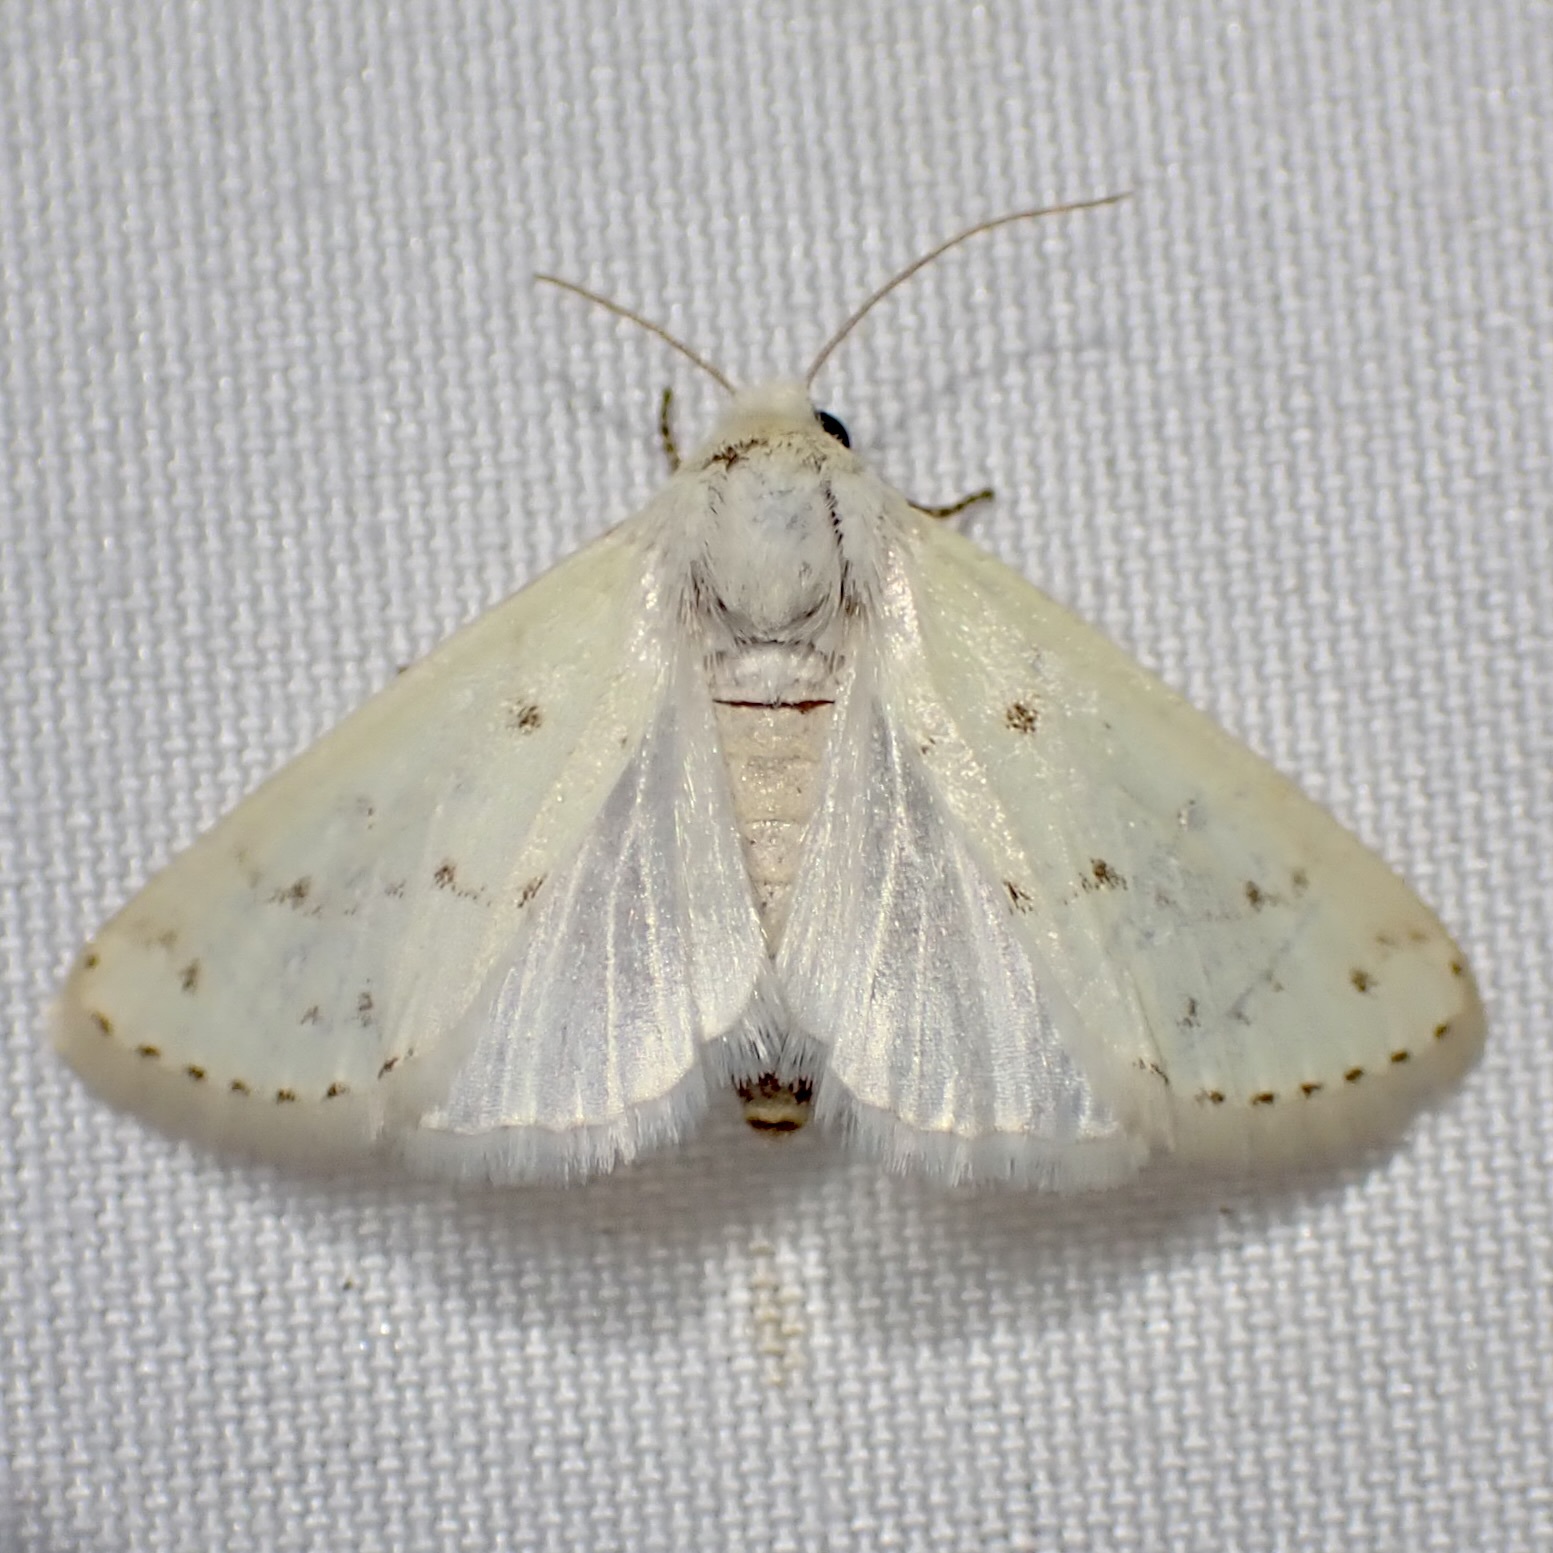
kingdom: Animalia
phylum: Arthropoda
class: Insecta
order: Lepidoptera
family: Noctuidae
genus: Schinia
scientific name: Schinia luxa
